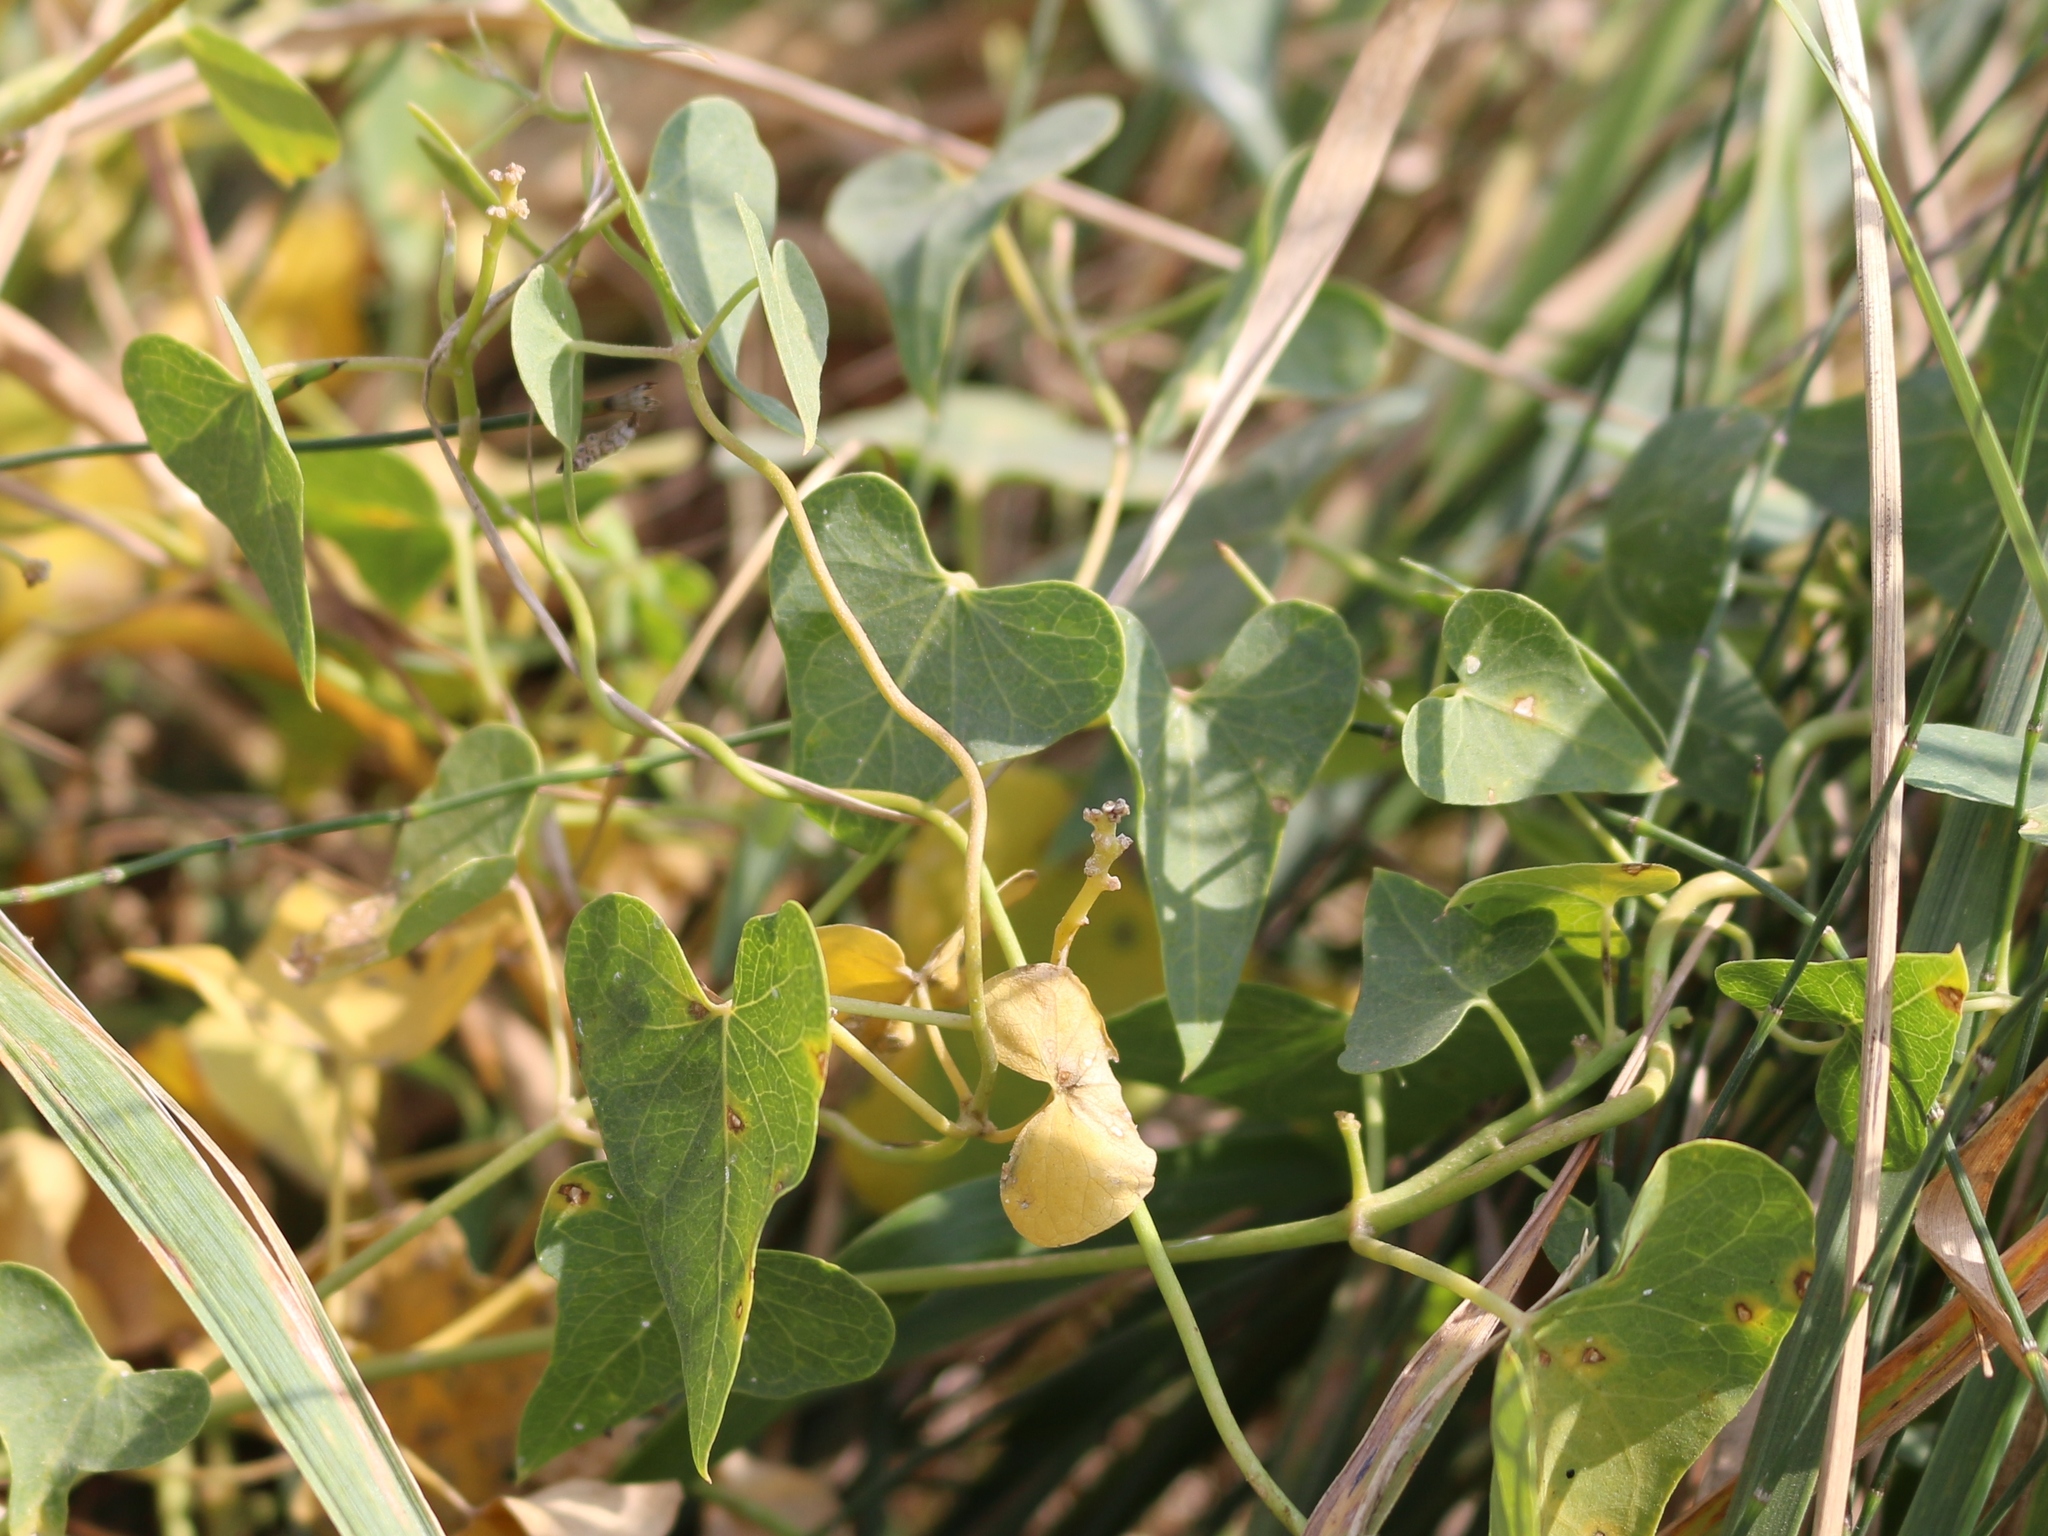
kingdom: Plantae
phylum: Tracheophyta
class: Magnoliopsida
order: Gentianales
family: Apocynaceae
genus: Cynanchum
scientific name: Cynanchum acutum
